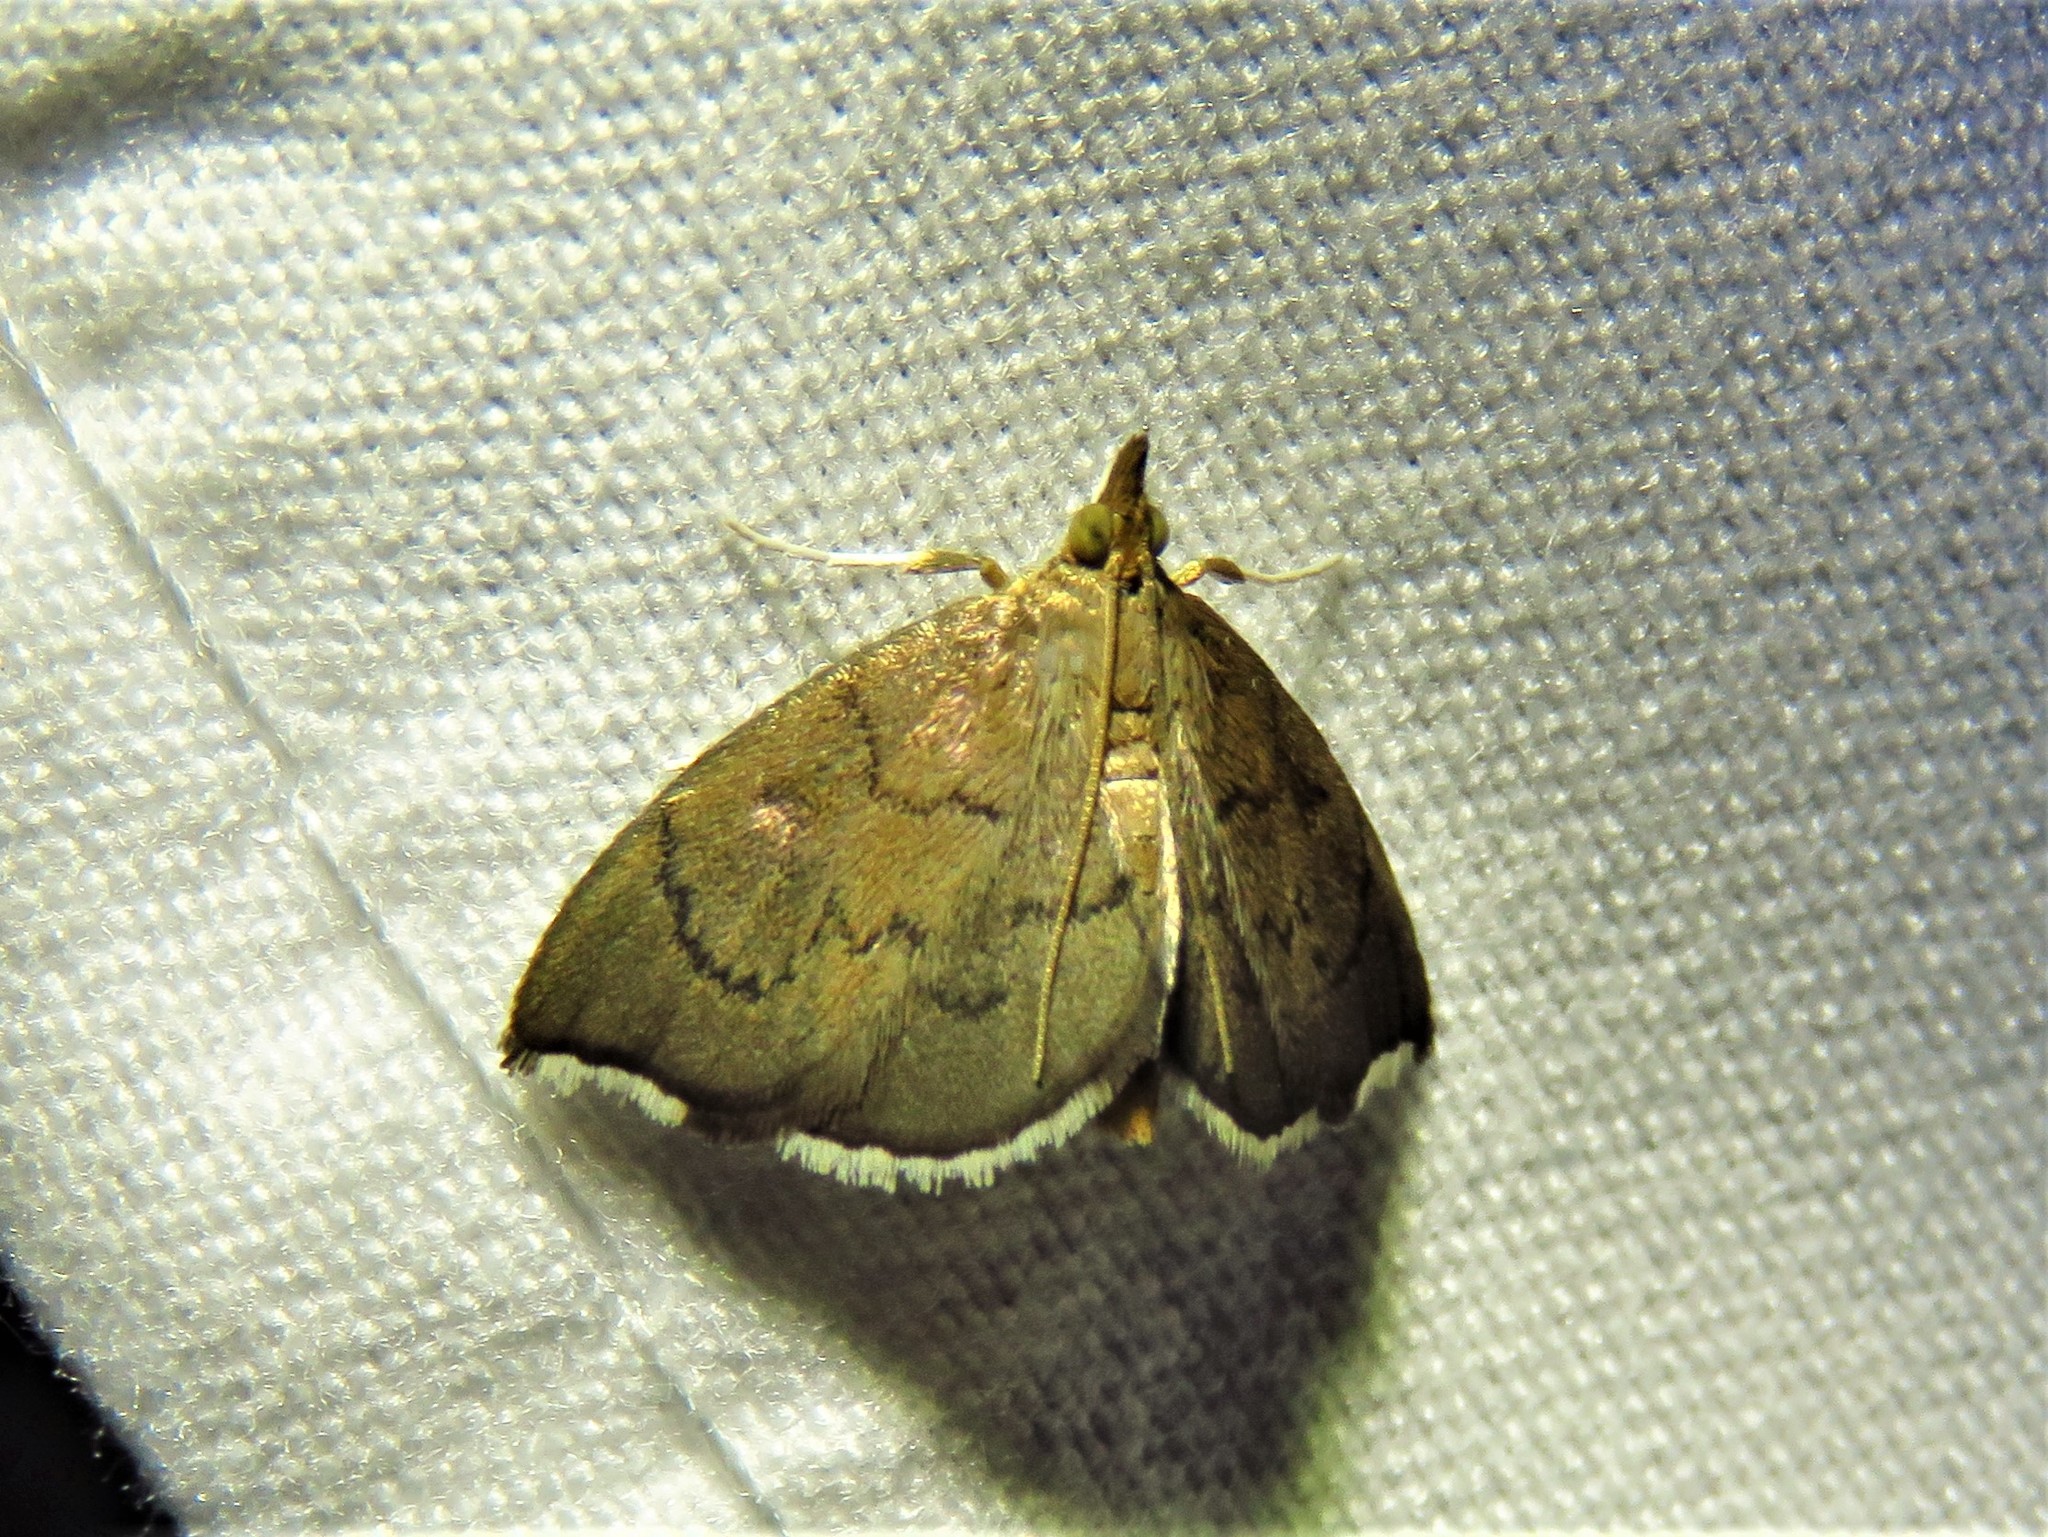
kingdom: Animalia
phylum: Arthropoda
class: Insecta
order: Lepidoptera
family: Crambidae
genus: Perispasta
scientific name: Perispasta caeculalis
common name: Titian peale's moth
